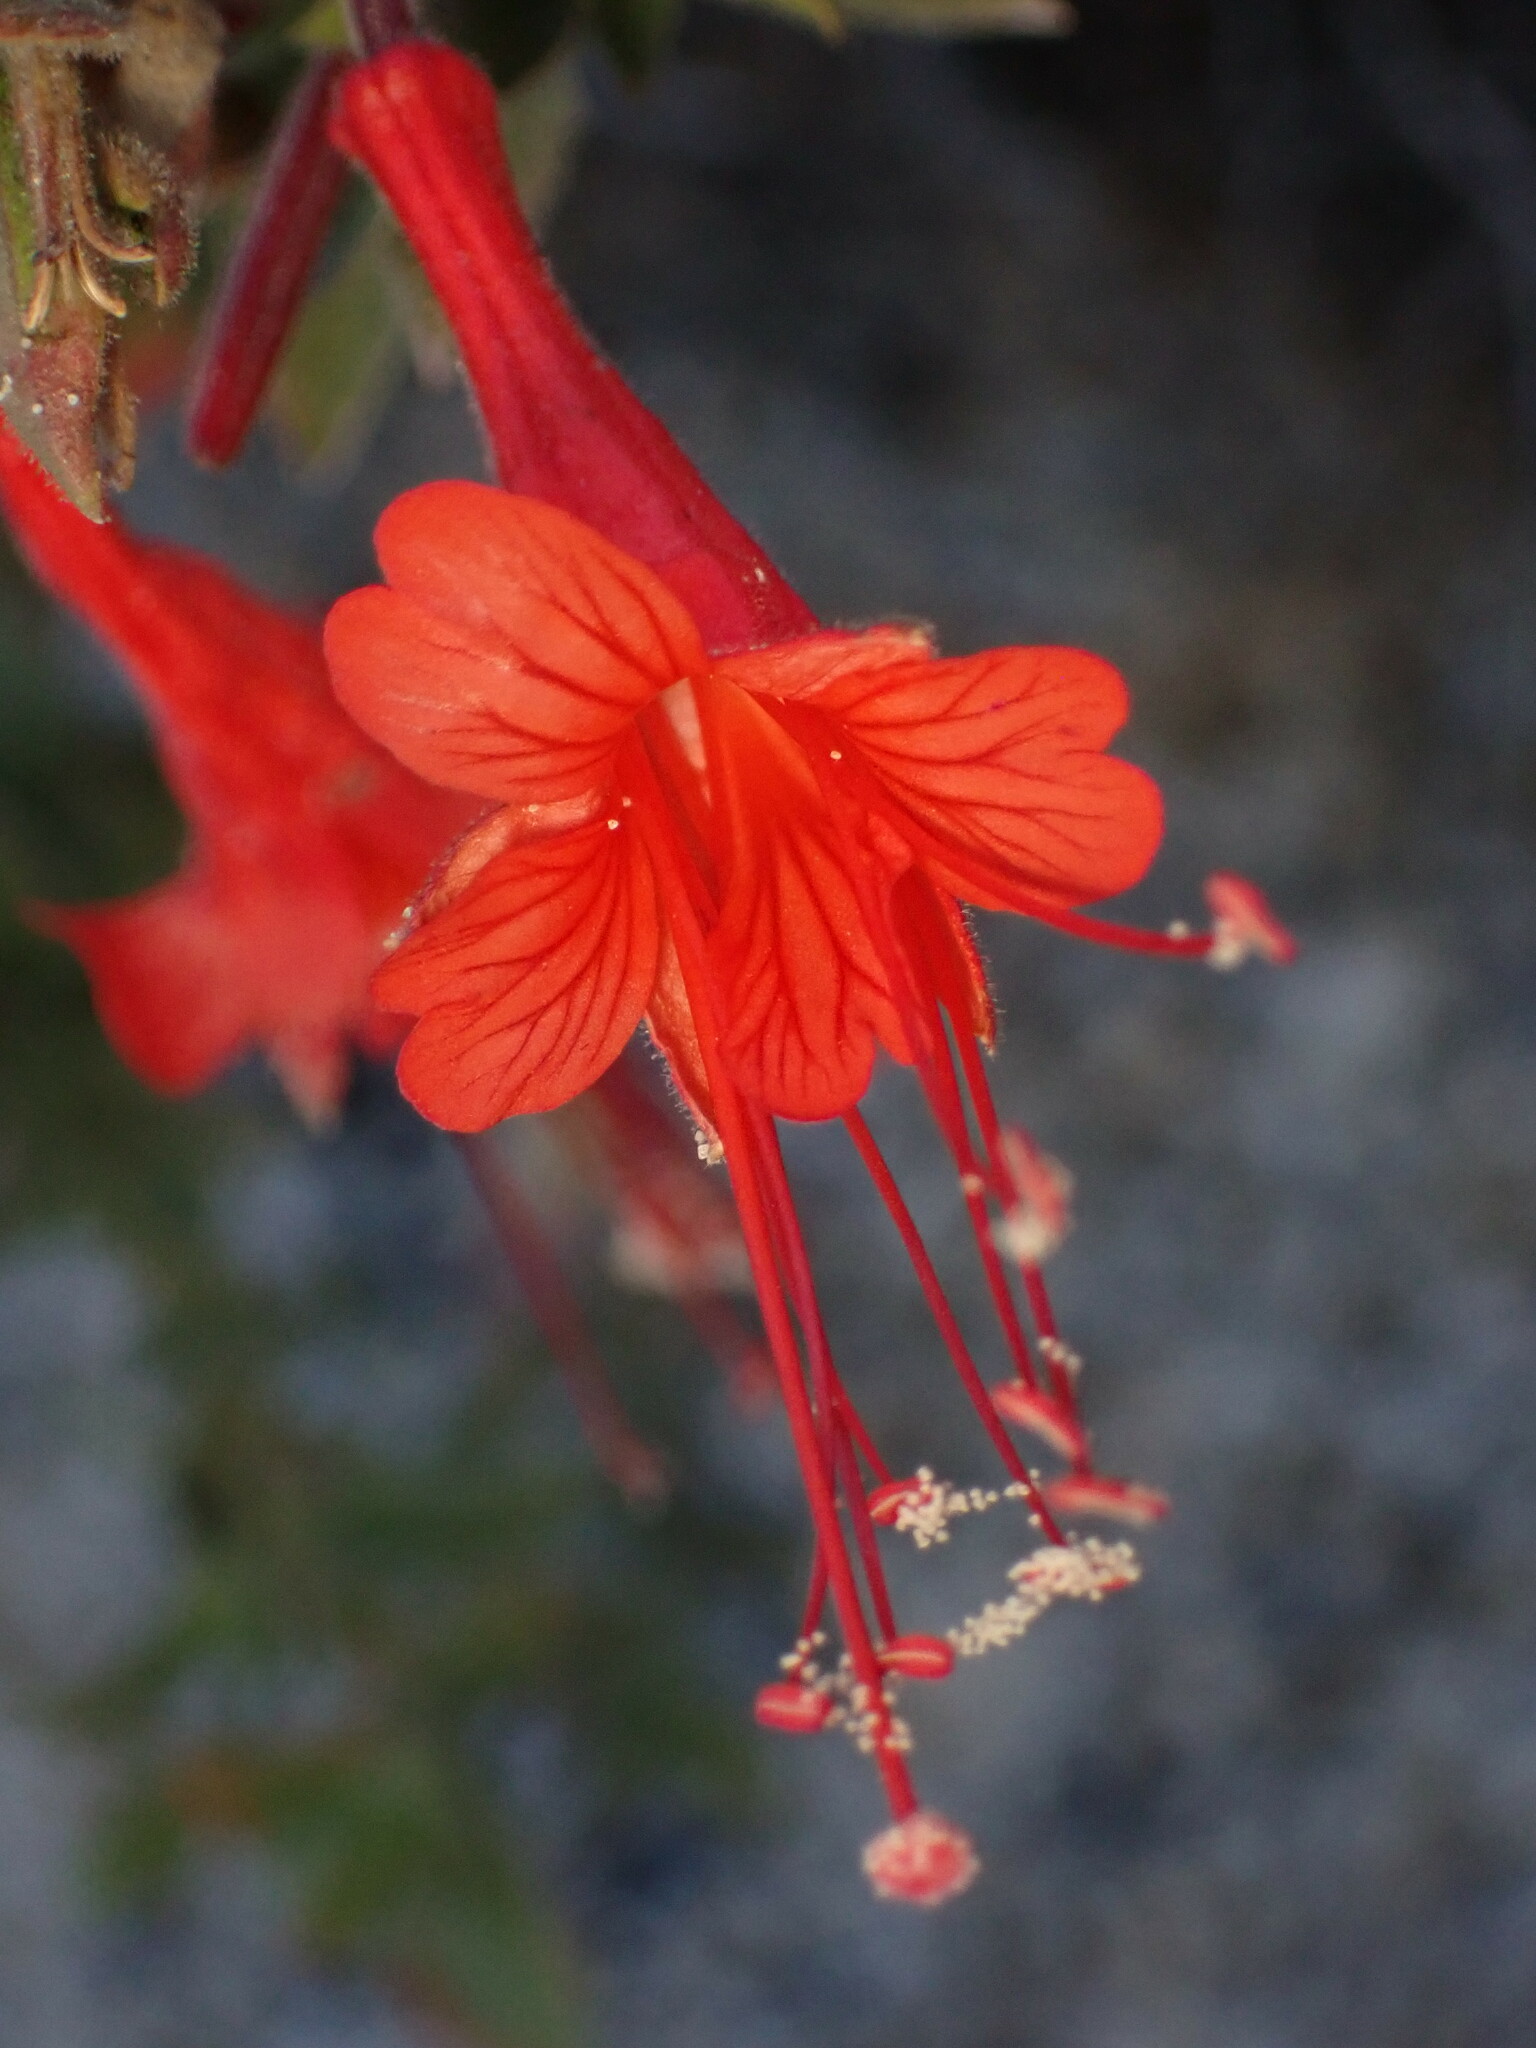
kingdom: Plantae
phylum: Tracheophyta
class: Magnoliopsida
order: Myrtales
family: Onagraceae
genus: Epilobium
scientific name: Epilobium canum
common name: California-fuchsia
